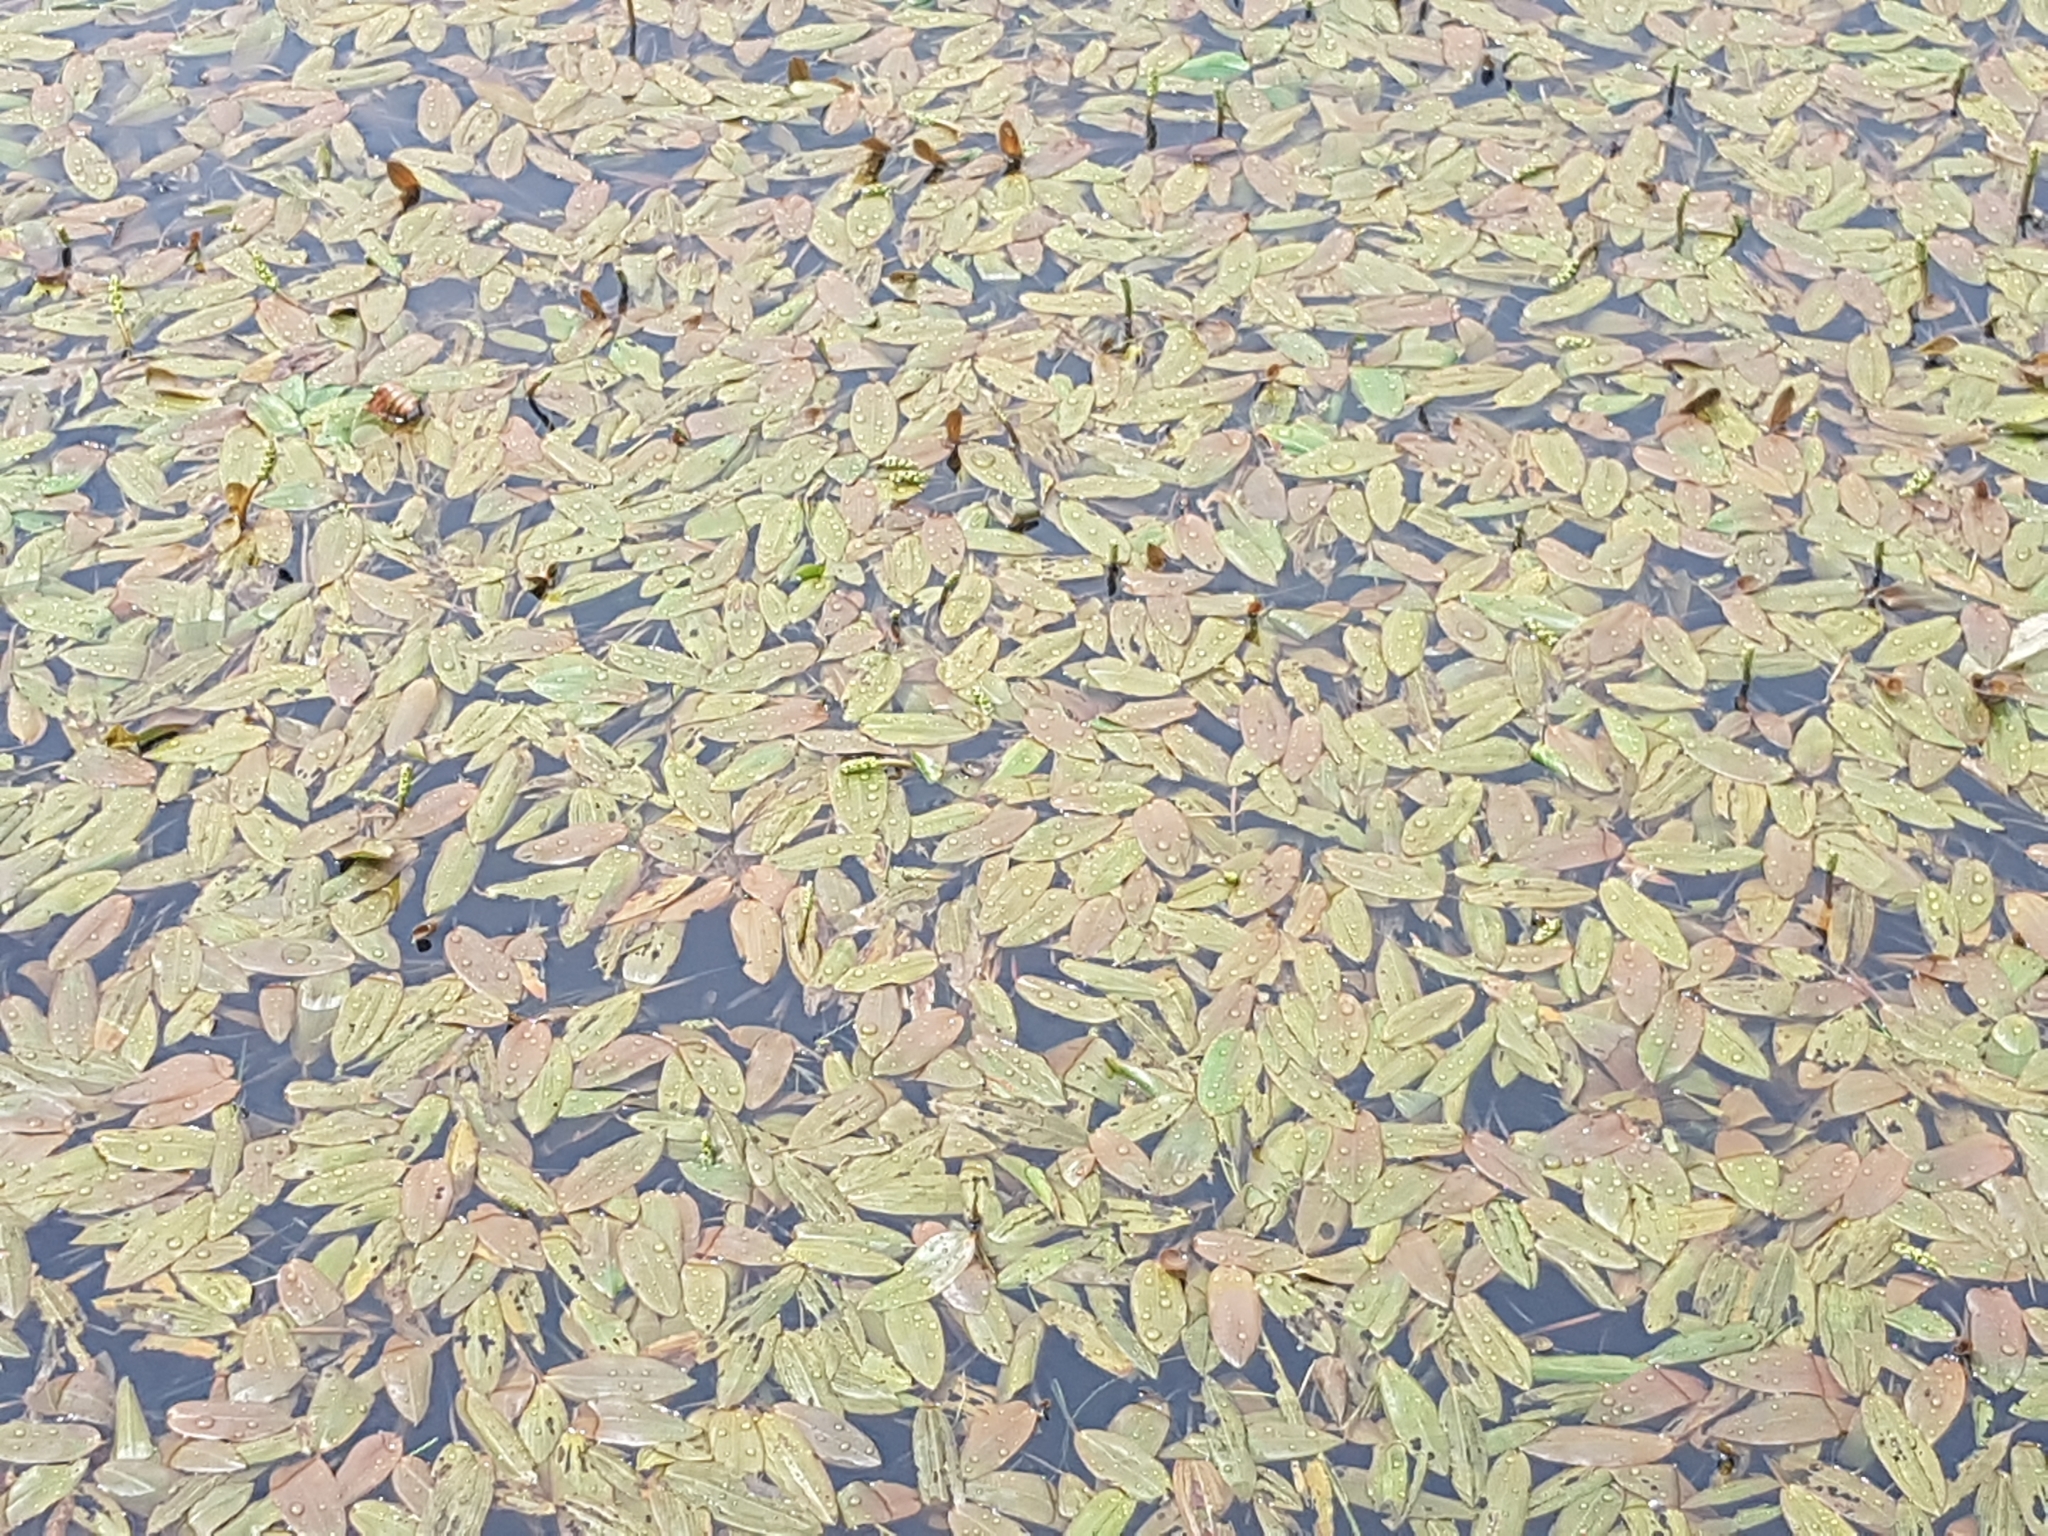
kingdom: Plantae
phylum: Tracheophyta
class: Liliopsida
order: Alismatales
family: Potamogetonaceae
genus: Potamogeton
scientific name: Potamogeton natans
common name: Broad-leaved pondweed
